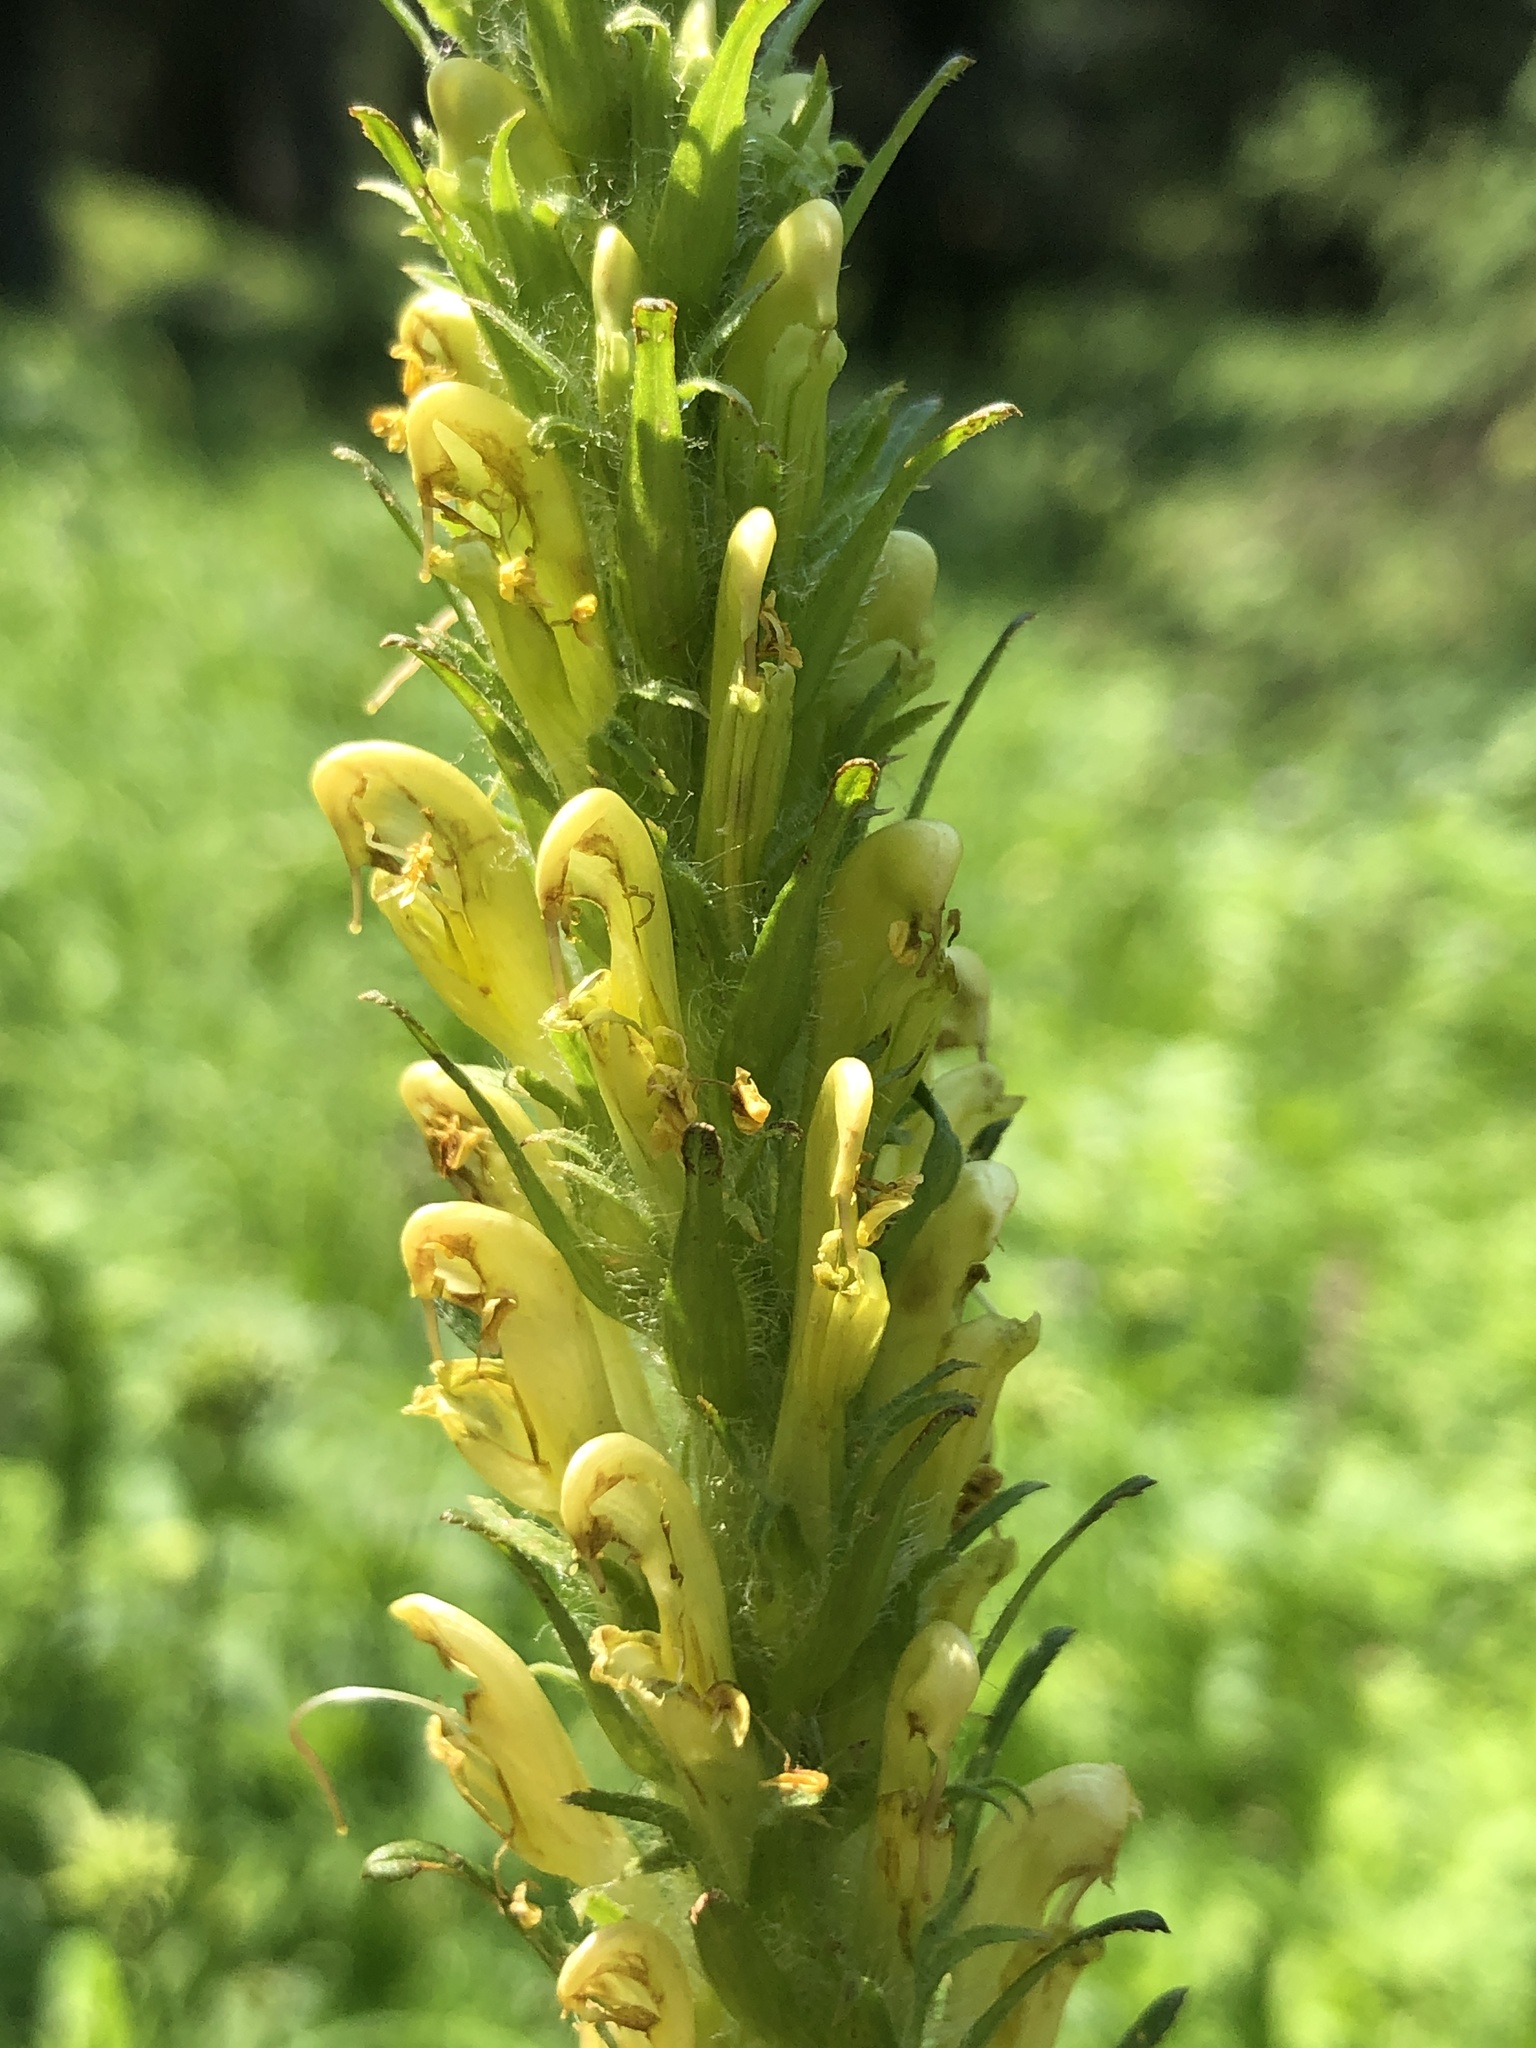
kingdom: Plantae
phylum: Tracheophyta
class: Magnoliopsida
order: Lamiales
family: Orobanchaceae
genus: Pedicularis
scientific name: Pedicularis bracteosa
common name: Bracted lousewort
